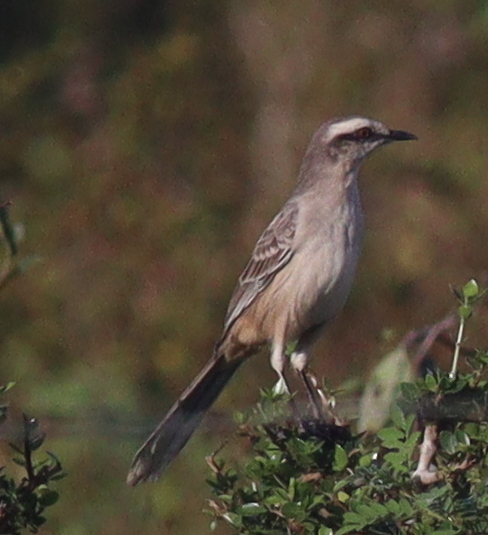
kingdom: Animalia
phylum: Chordata
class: Aves
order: Passeriformes
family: Mimidae
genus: Mimus
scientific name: Mimus saturninus
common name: Chalk-browed mockingbird
